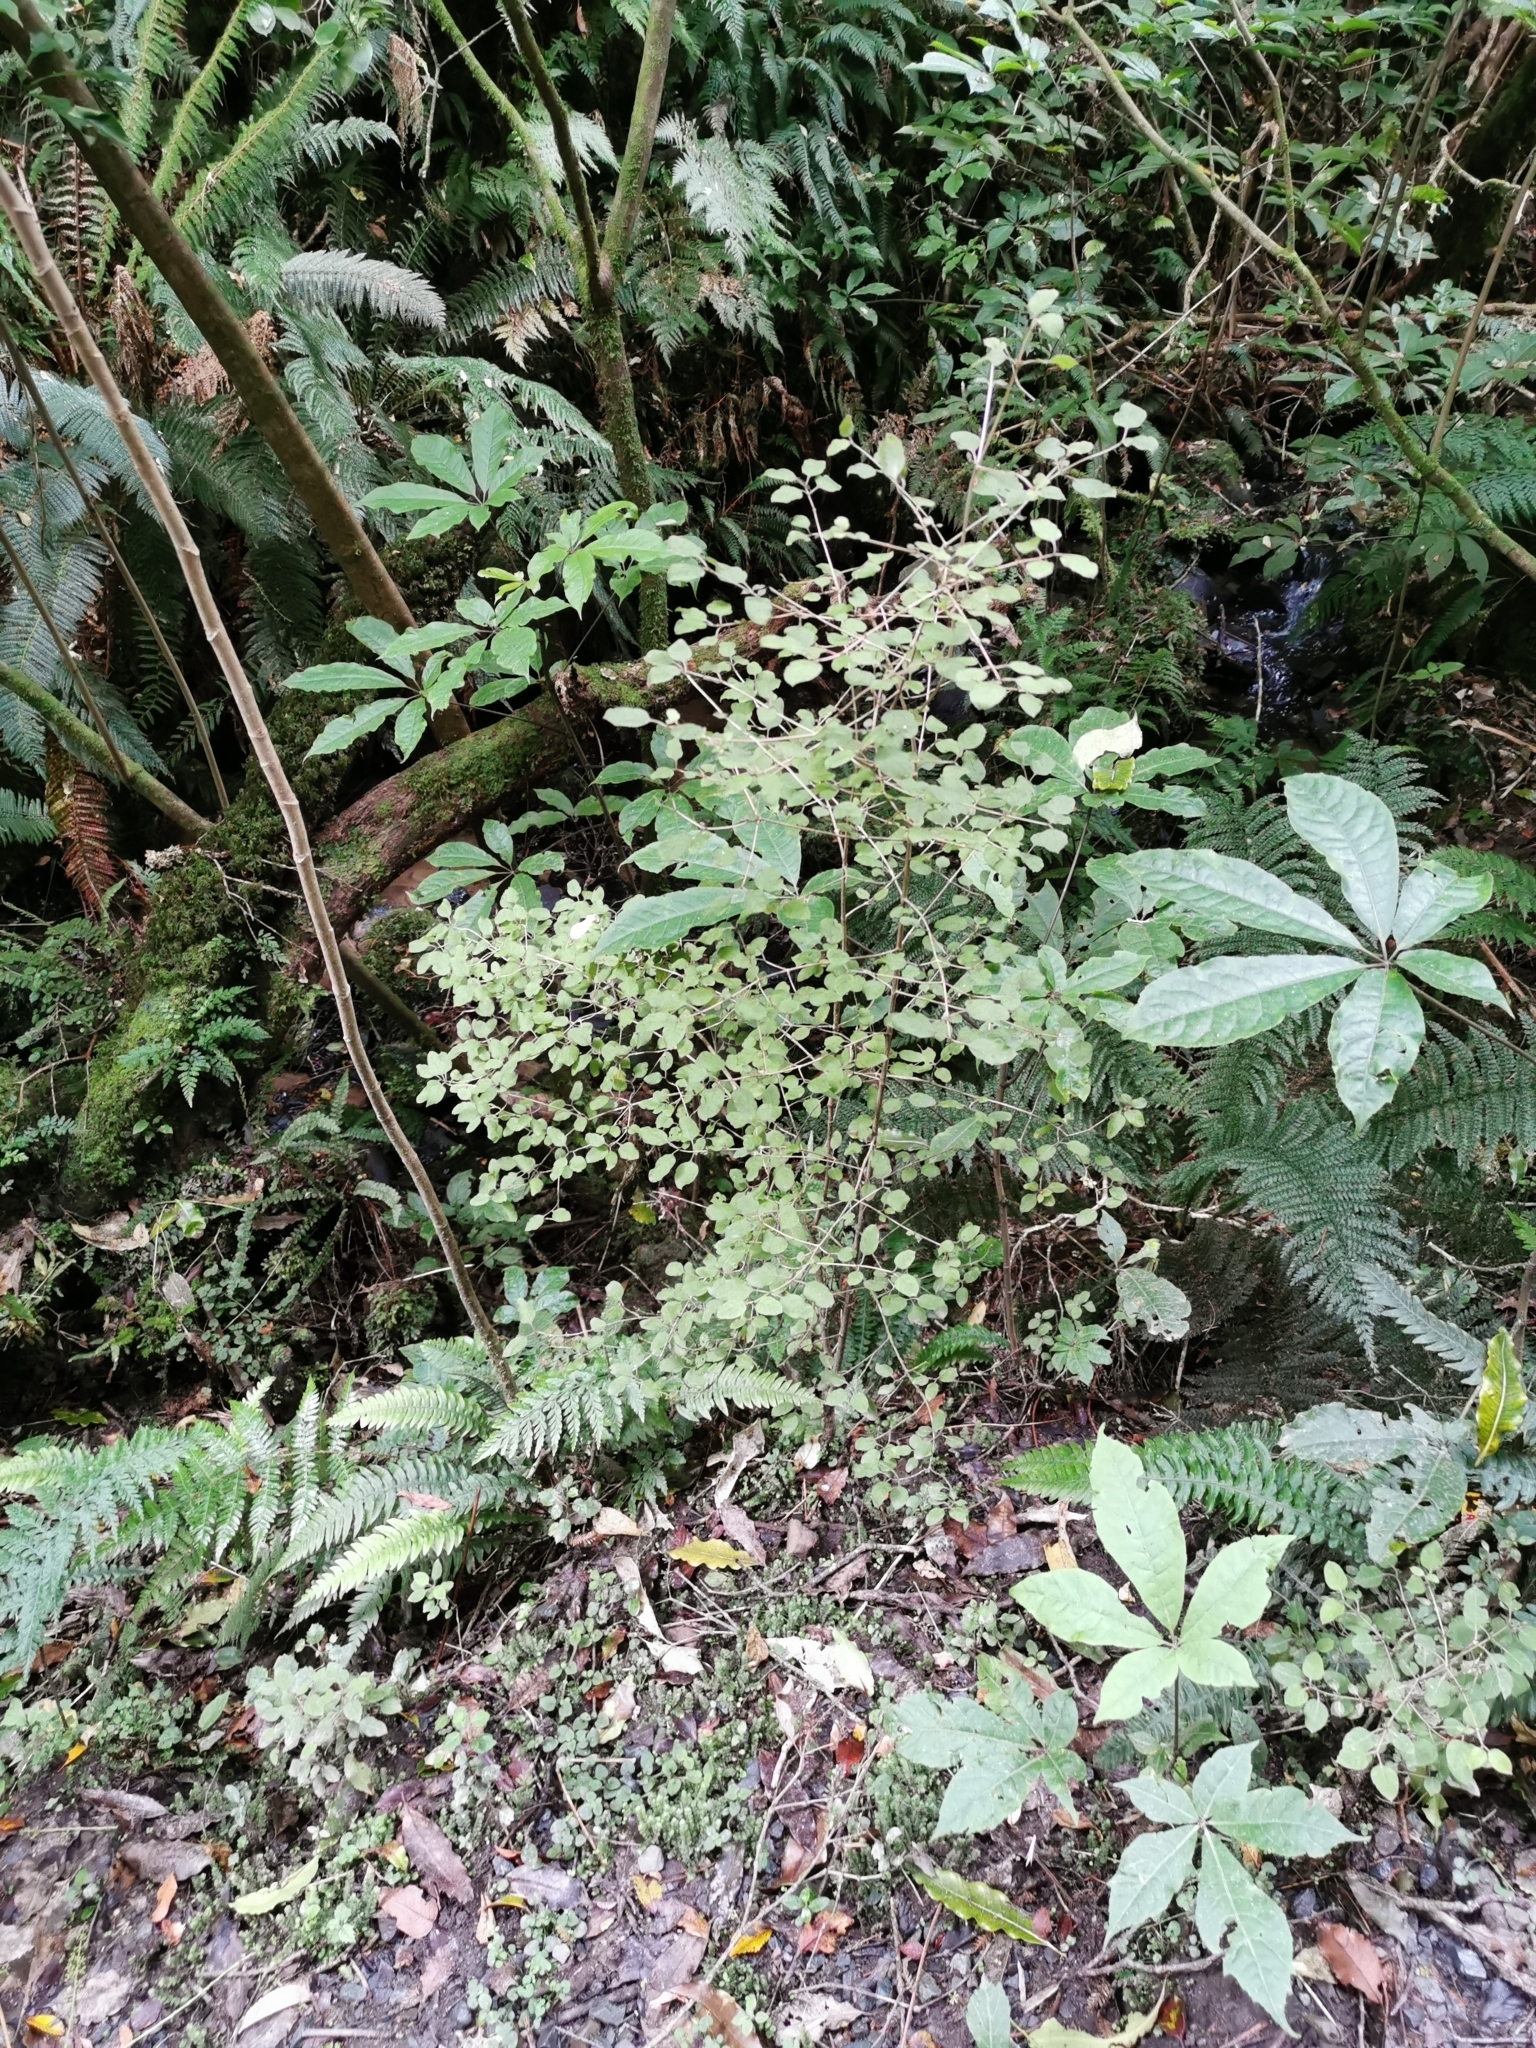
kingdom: Plantae
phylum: Tracheophyta
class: Magnoliopsida
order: Gentianales
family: Rubiaceae
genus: Coprosma
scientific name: Coprosma rotundifolia
